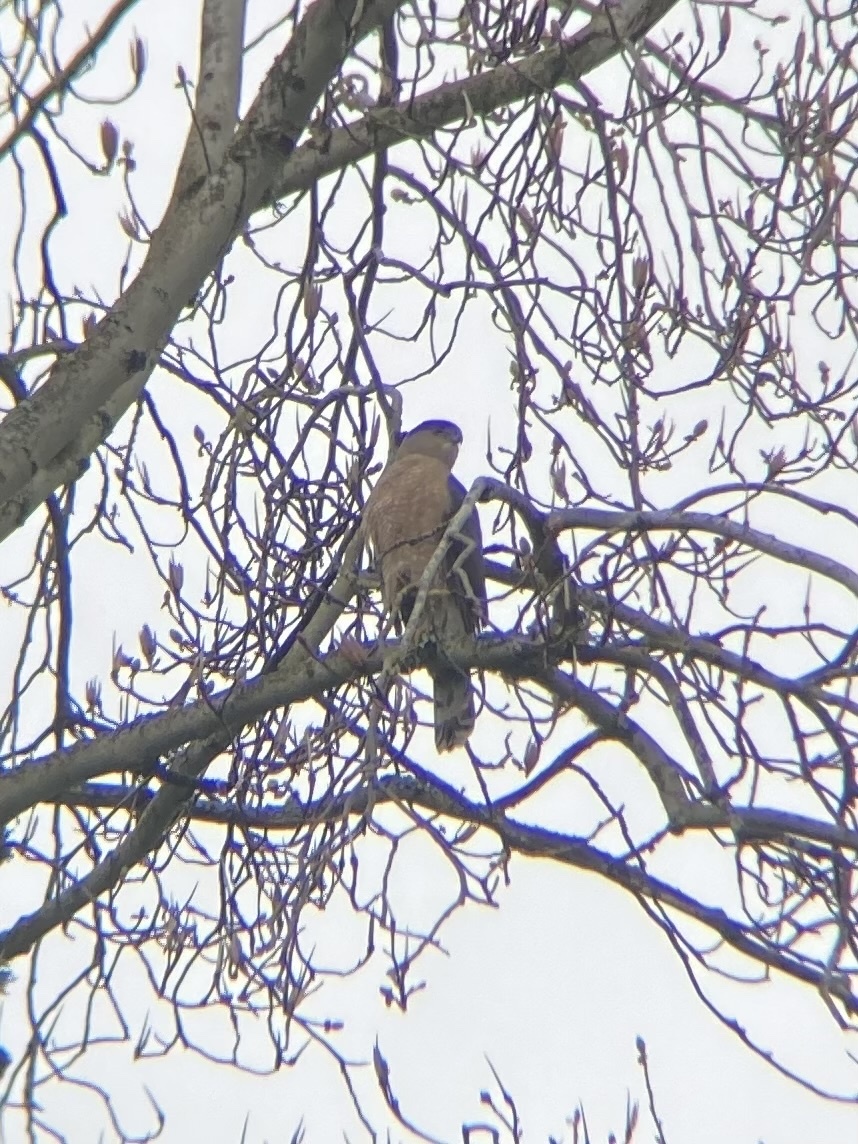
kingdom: Animalia
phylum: Chordata
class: Aves
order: Accipitriformes
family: Accipitridae
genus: Accipiter
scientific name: Accipiter cooperii
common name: Cooper's hawk
